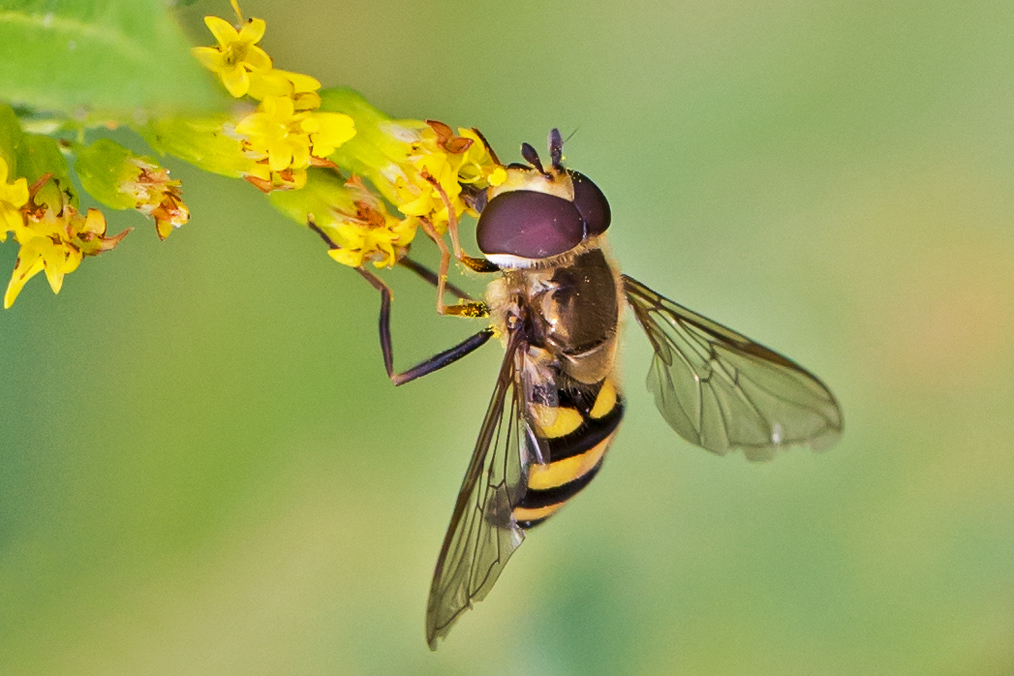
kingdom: Animalia
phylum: Arthropoda
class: Insecta
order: Diptera
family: Syrphidae
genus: Eupeodes
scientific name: Eupeodes
